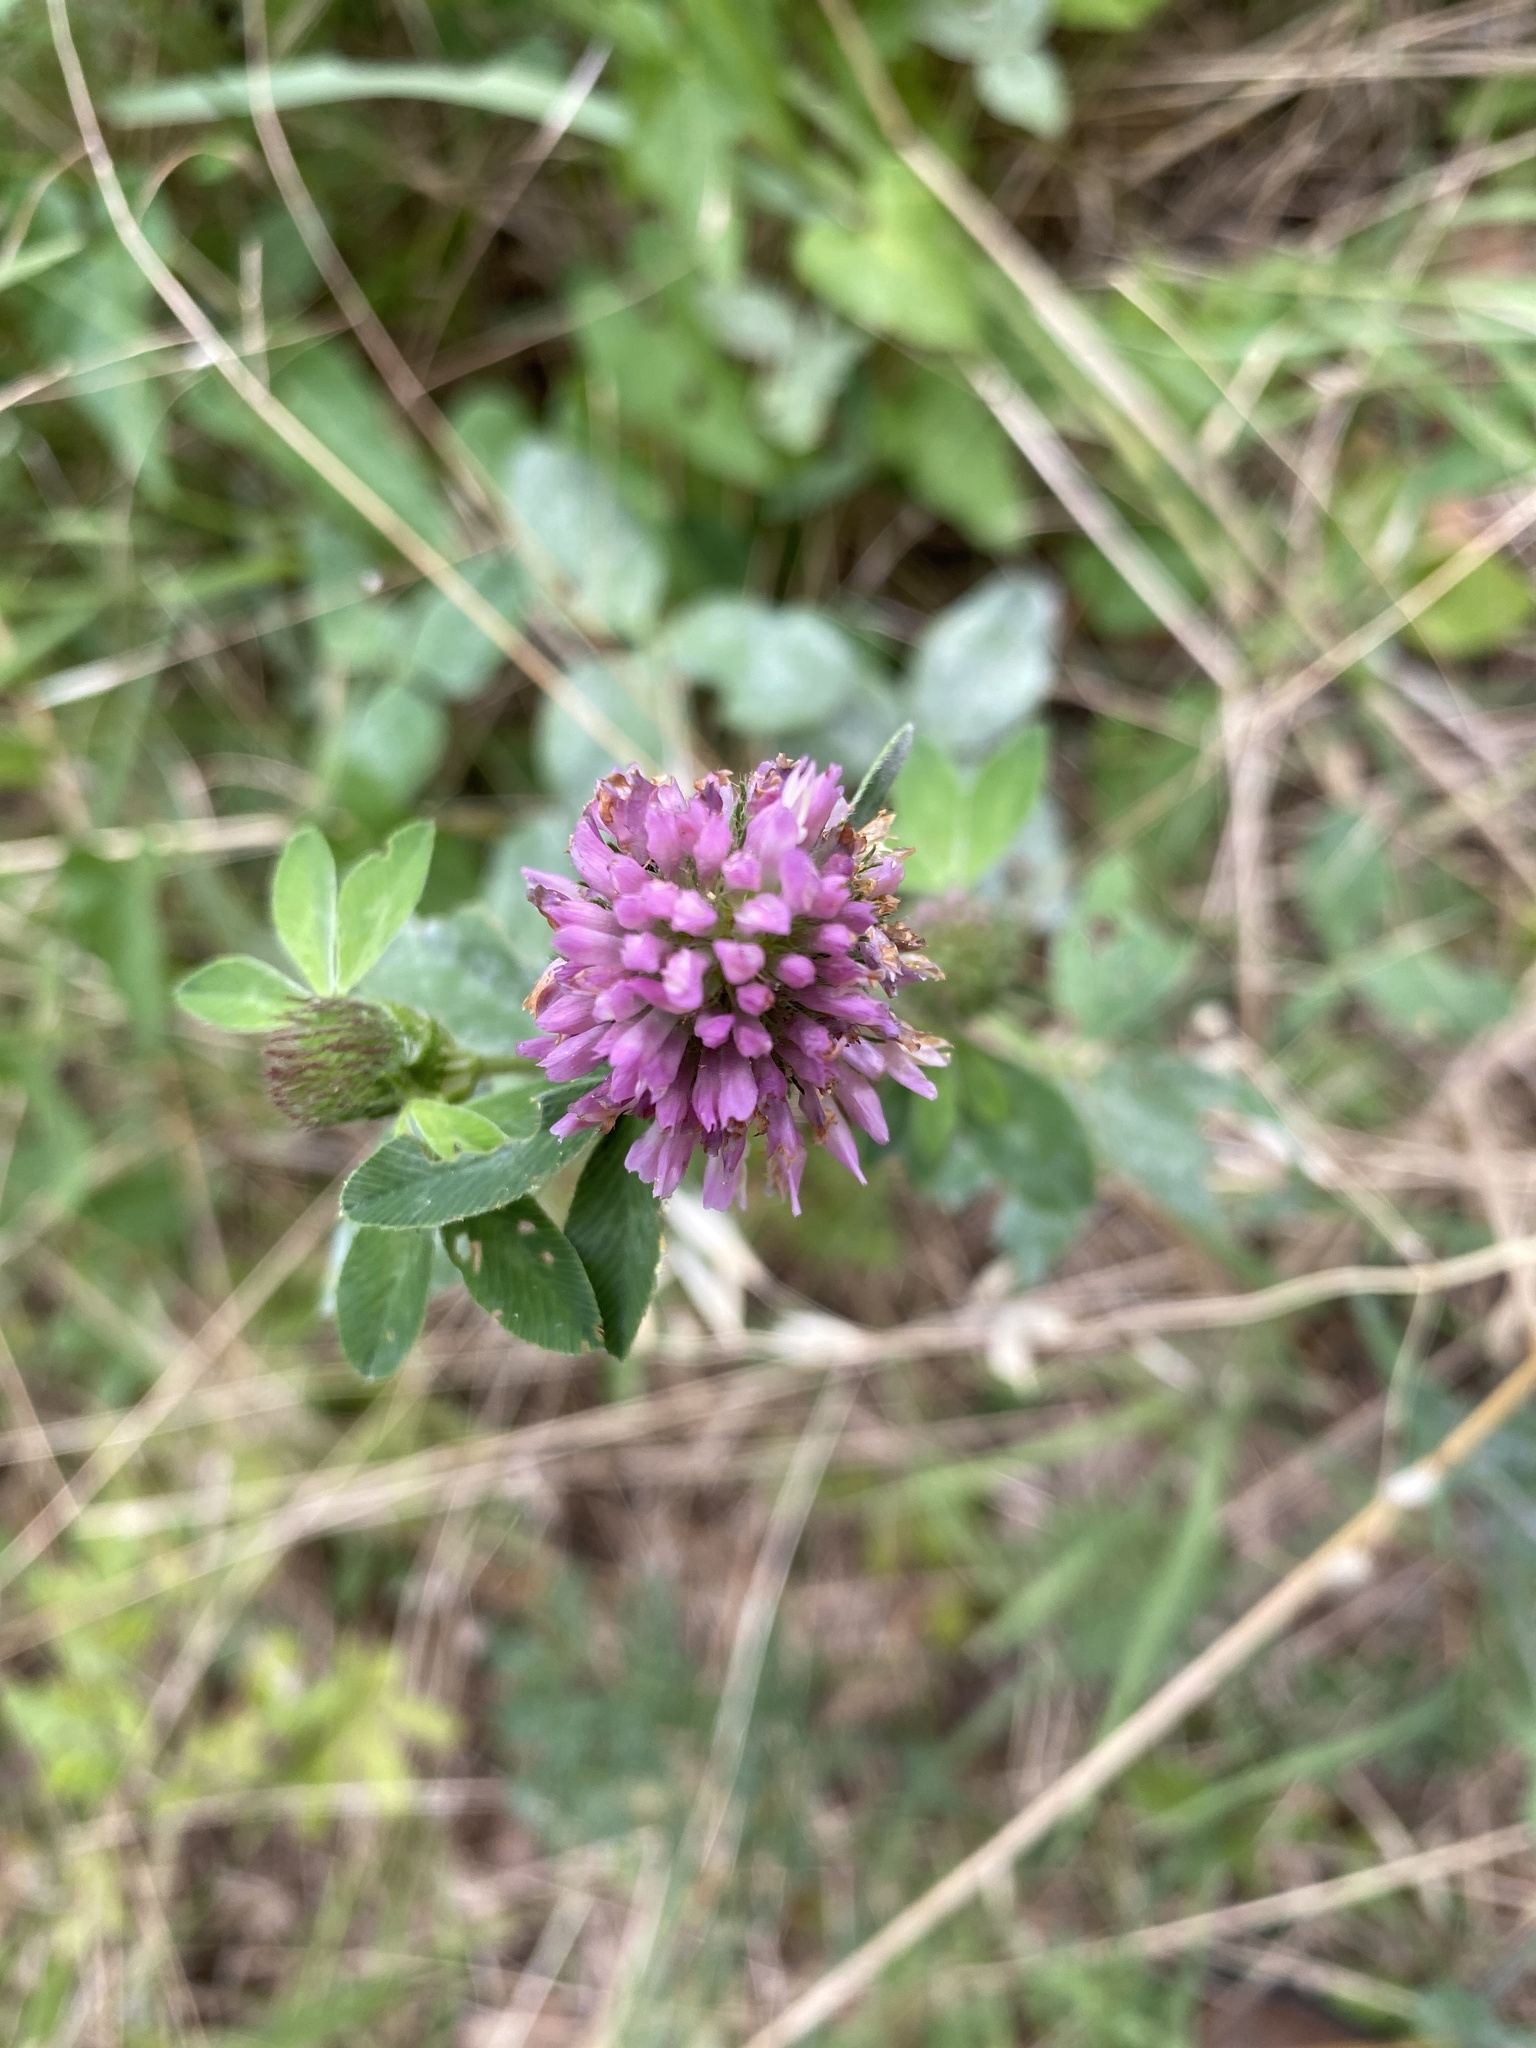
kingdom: Plantae
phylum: Tracheophyta
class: Magnoliopsida
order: Fabales
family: Fabaceae
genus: Trifolium
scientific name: Trifolium pratense
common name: Red clover
